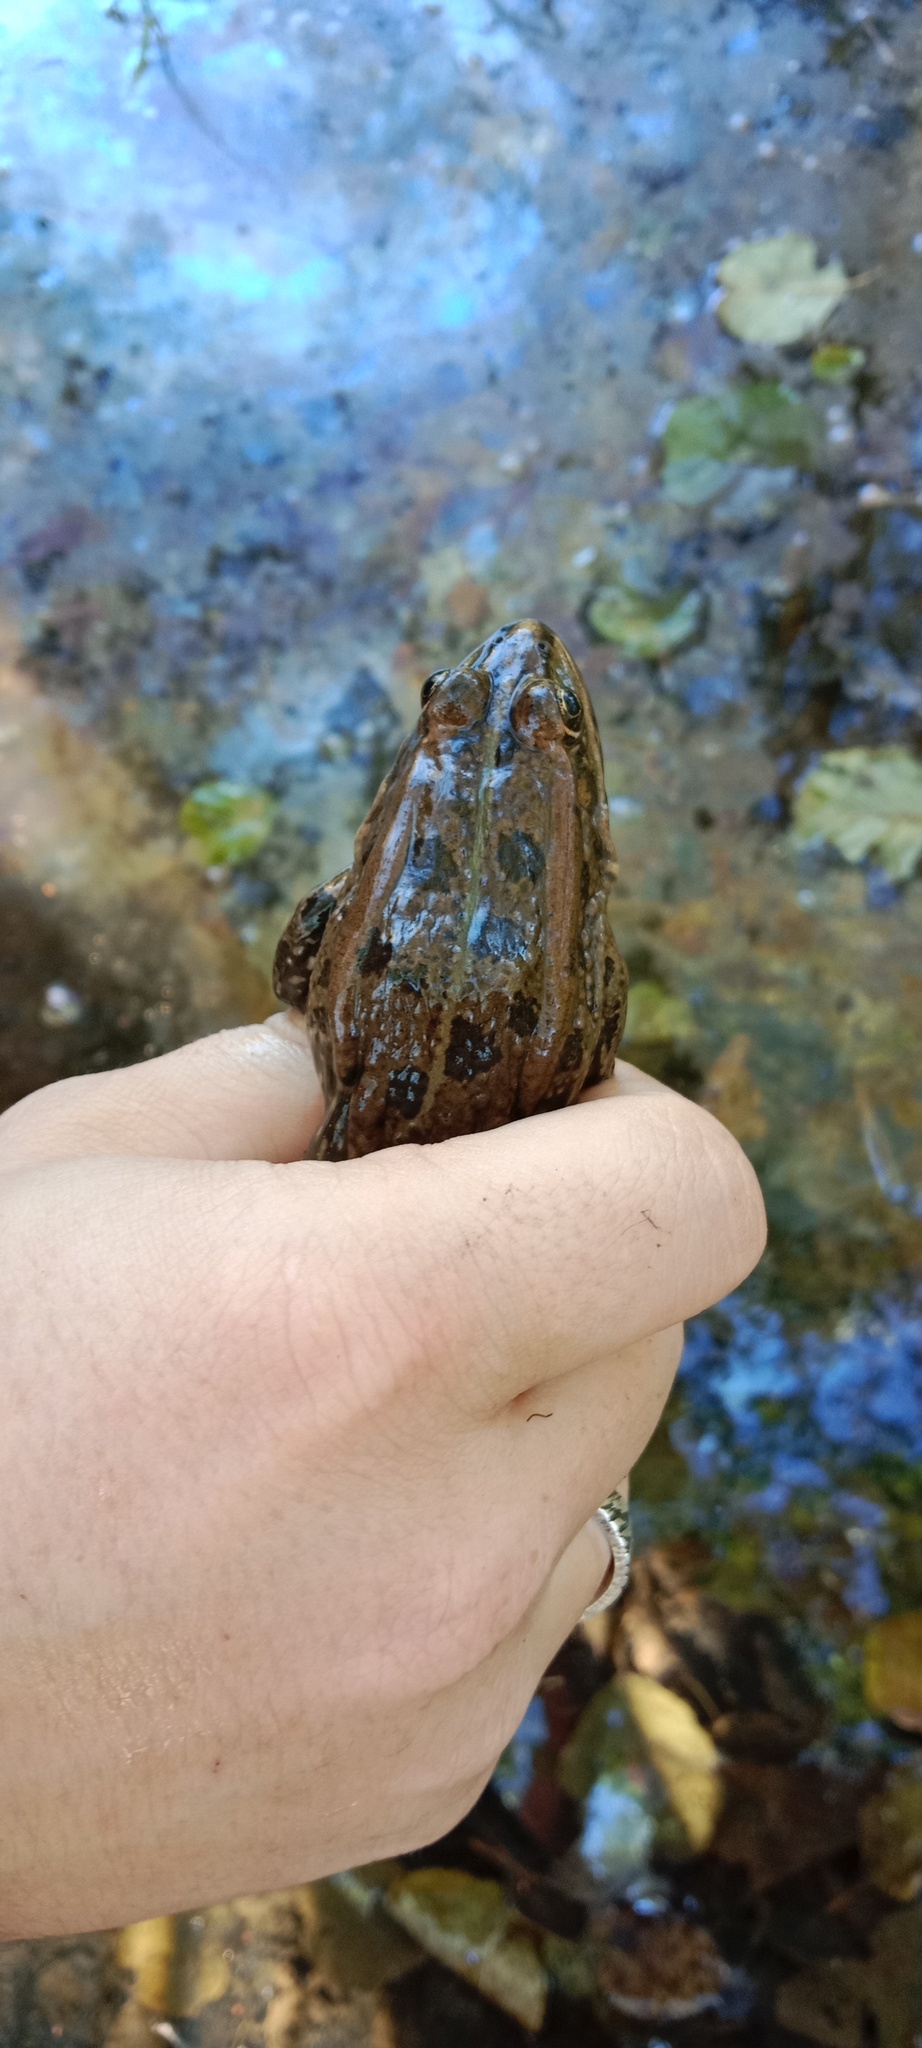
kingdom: Animalia
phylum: Chordata
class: Amphibia
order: Anura
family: Ranidae
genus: Pelophylax
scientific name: Pelophylax ridibundus
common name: Marsh frog
